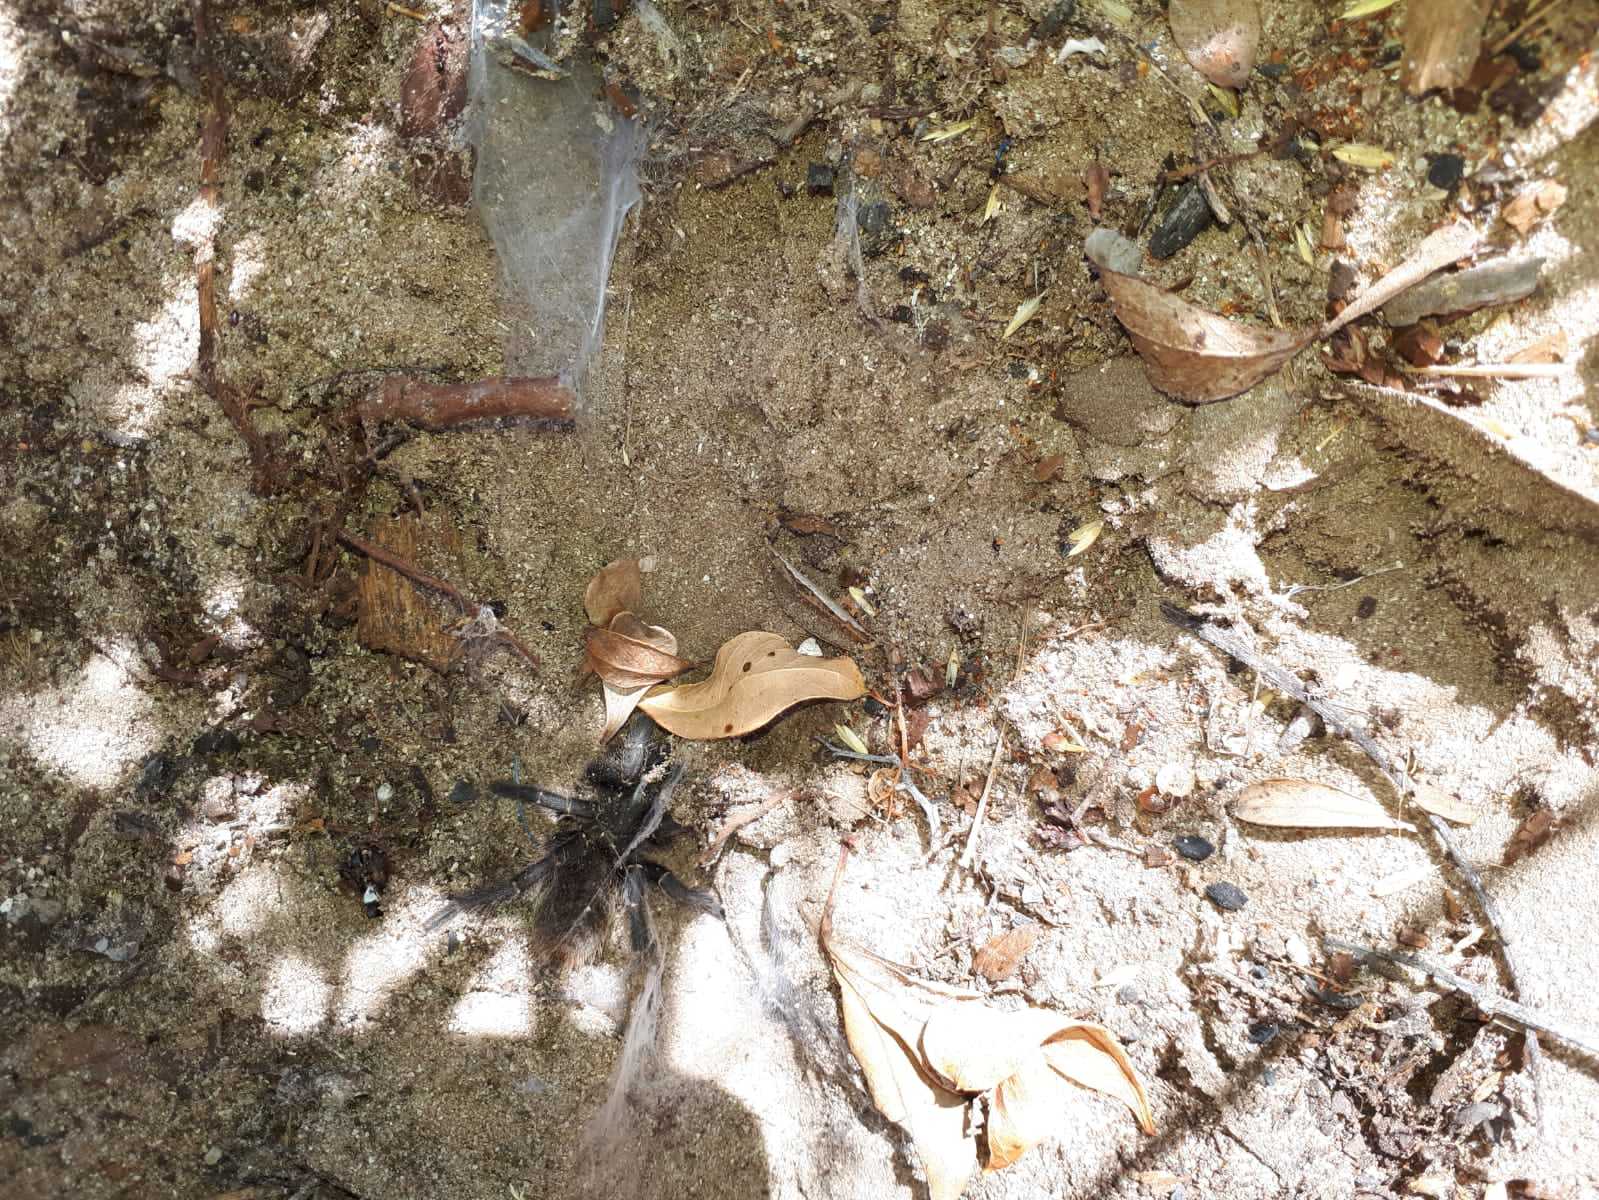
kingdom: Animalia
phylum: Arthropoda
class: Arachnida
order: Araneae
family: Theraphosidae
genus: Harpactira
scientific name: Harpactira atra
